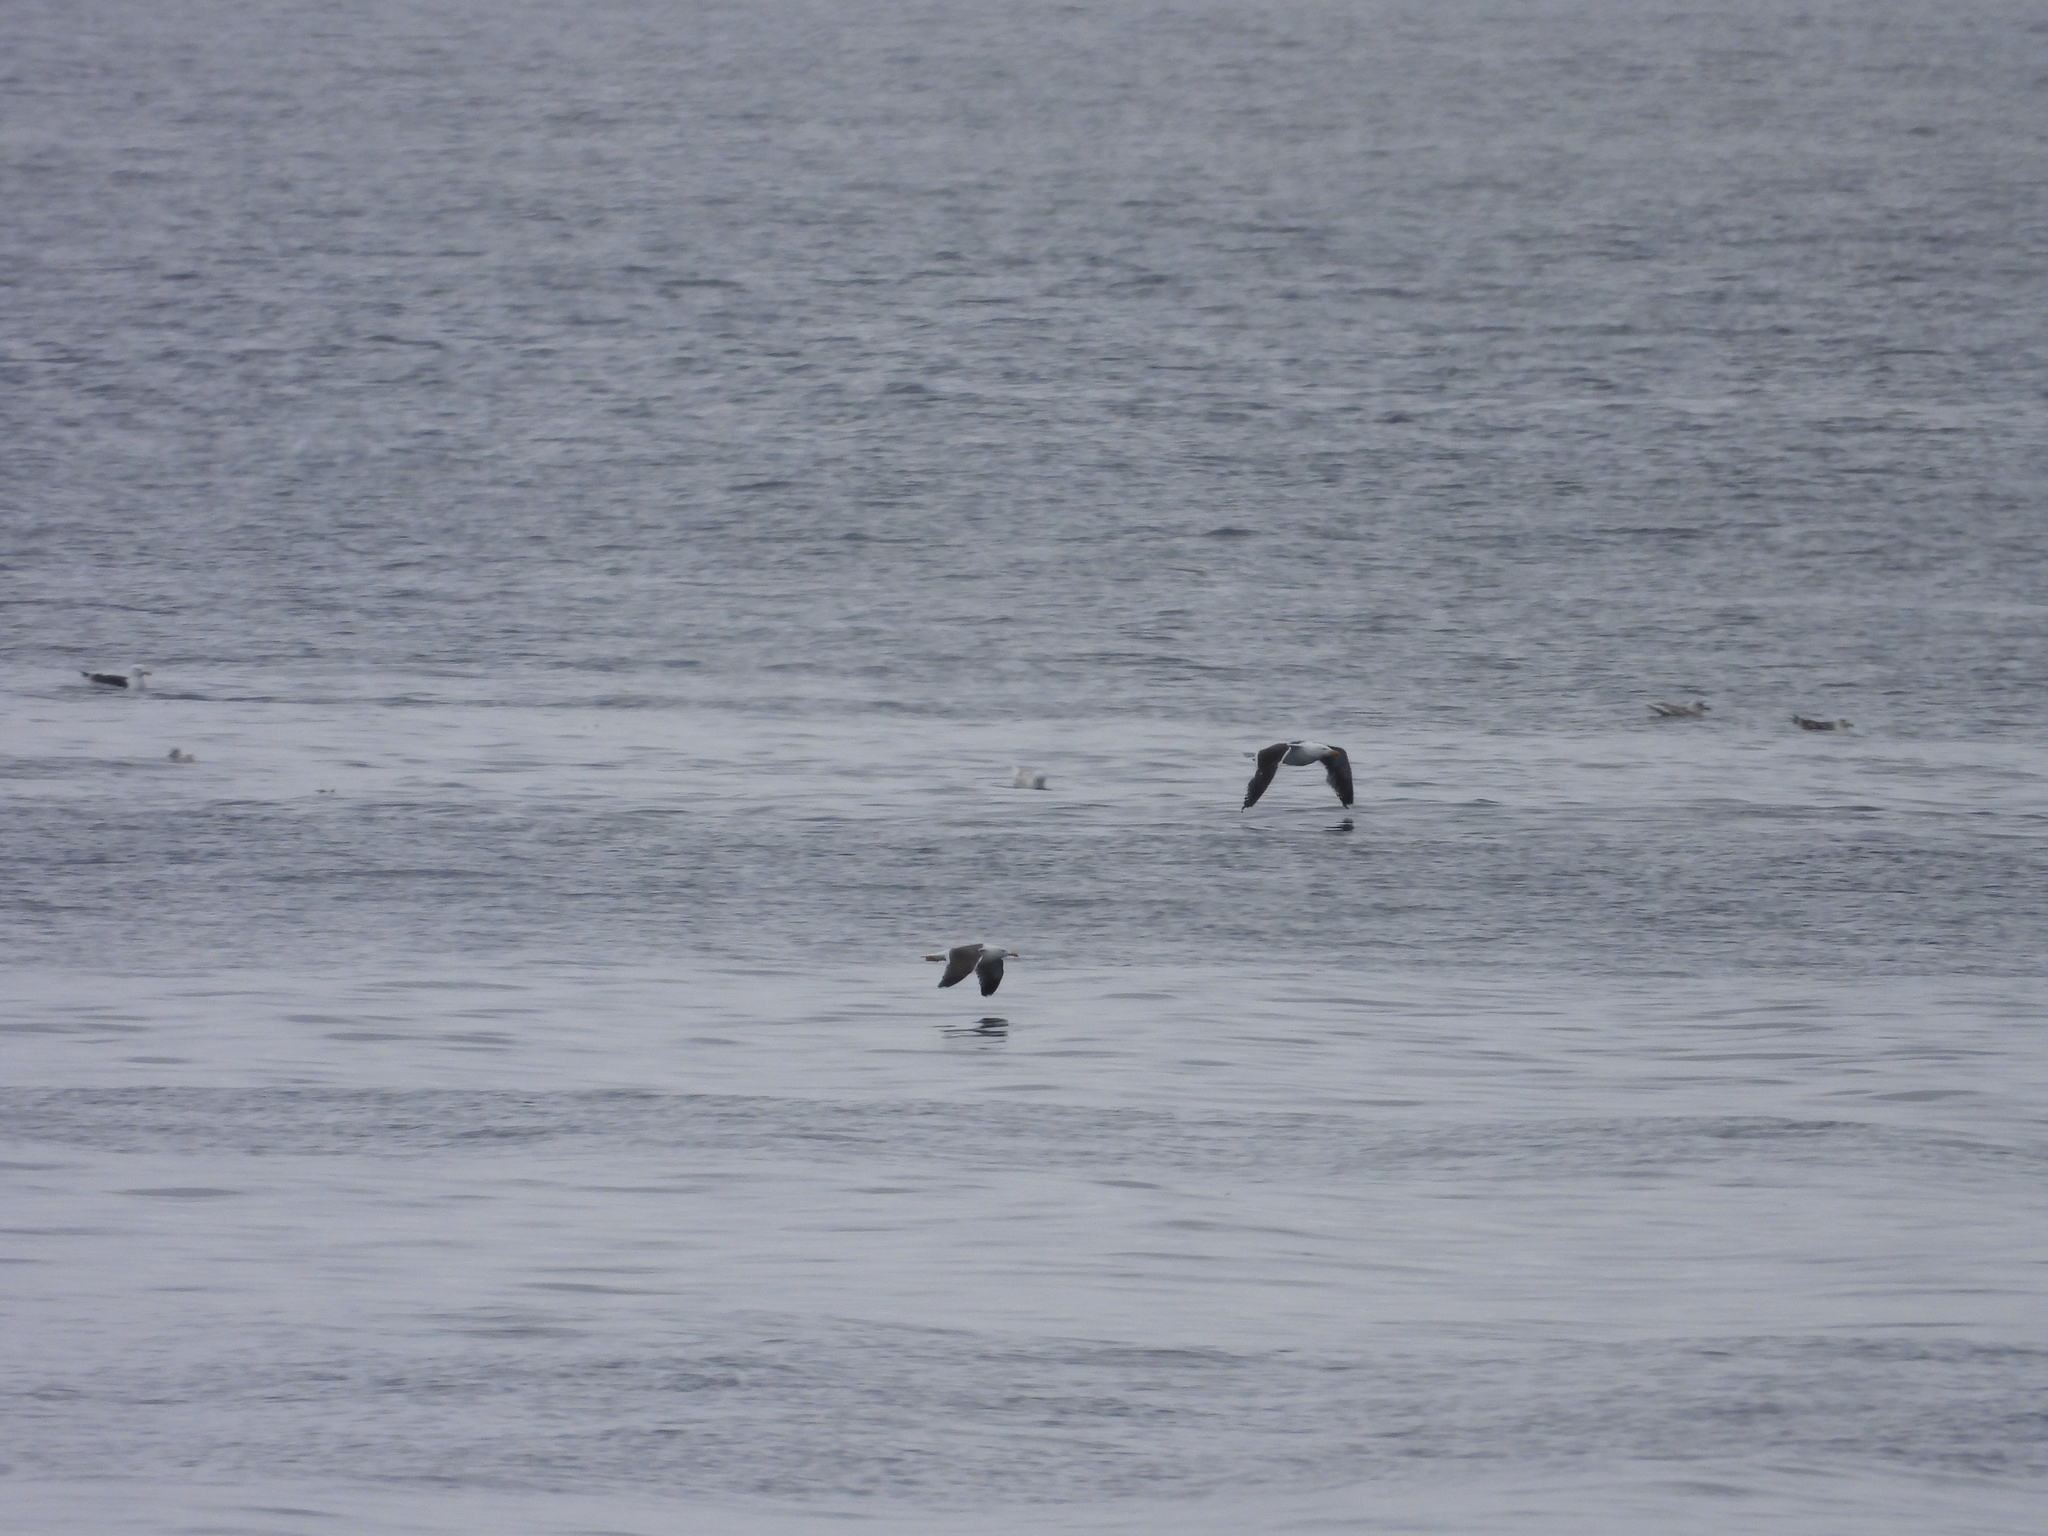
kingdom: Animalia
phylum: Chordata
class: Aves
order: Charadriiformes
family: Laridae
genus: Larus
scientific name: Larus marinus
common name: Great black-backed gull
